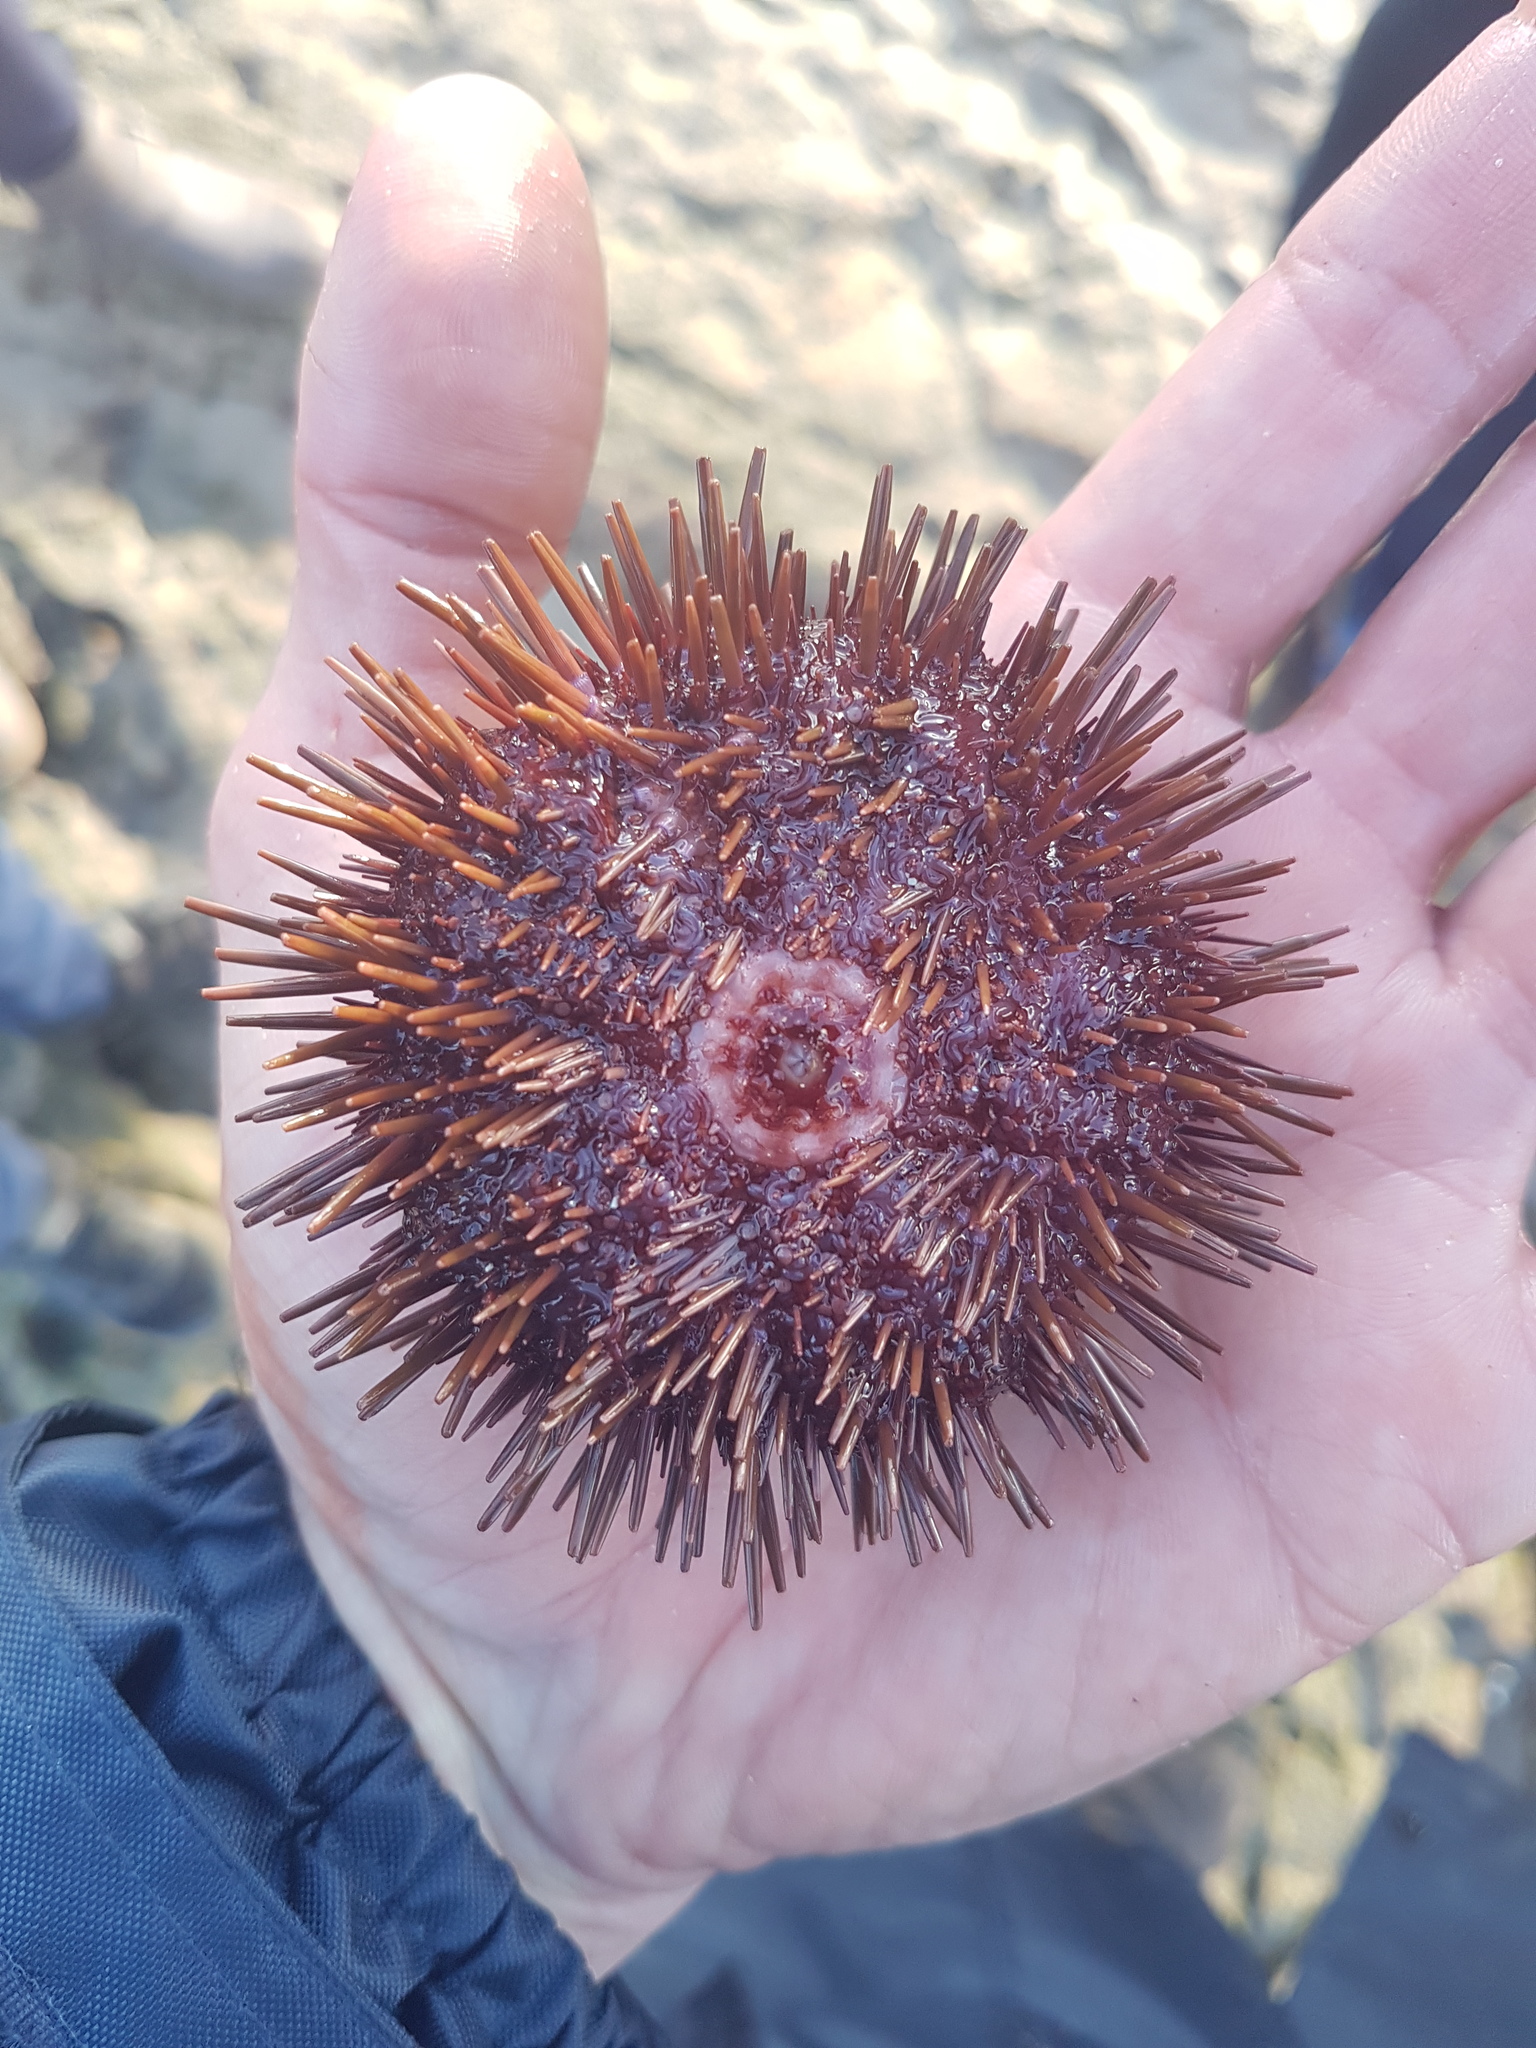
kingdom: Animalia
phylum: Echinodermata
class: Echinoidea
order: Camarodonta
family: Echinometridae
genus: Heliocidaris
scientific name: Heliocidaris erythrogramma
